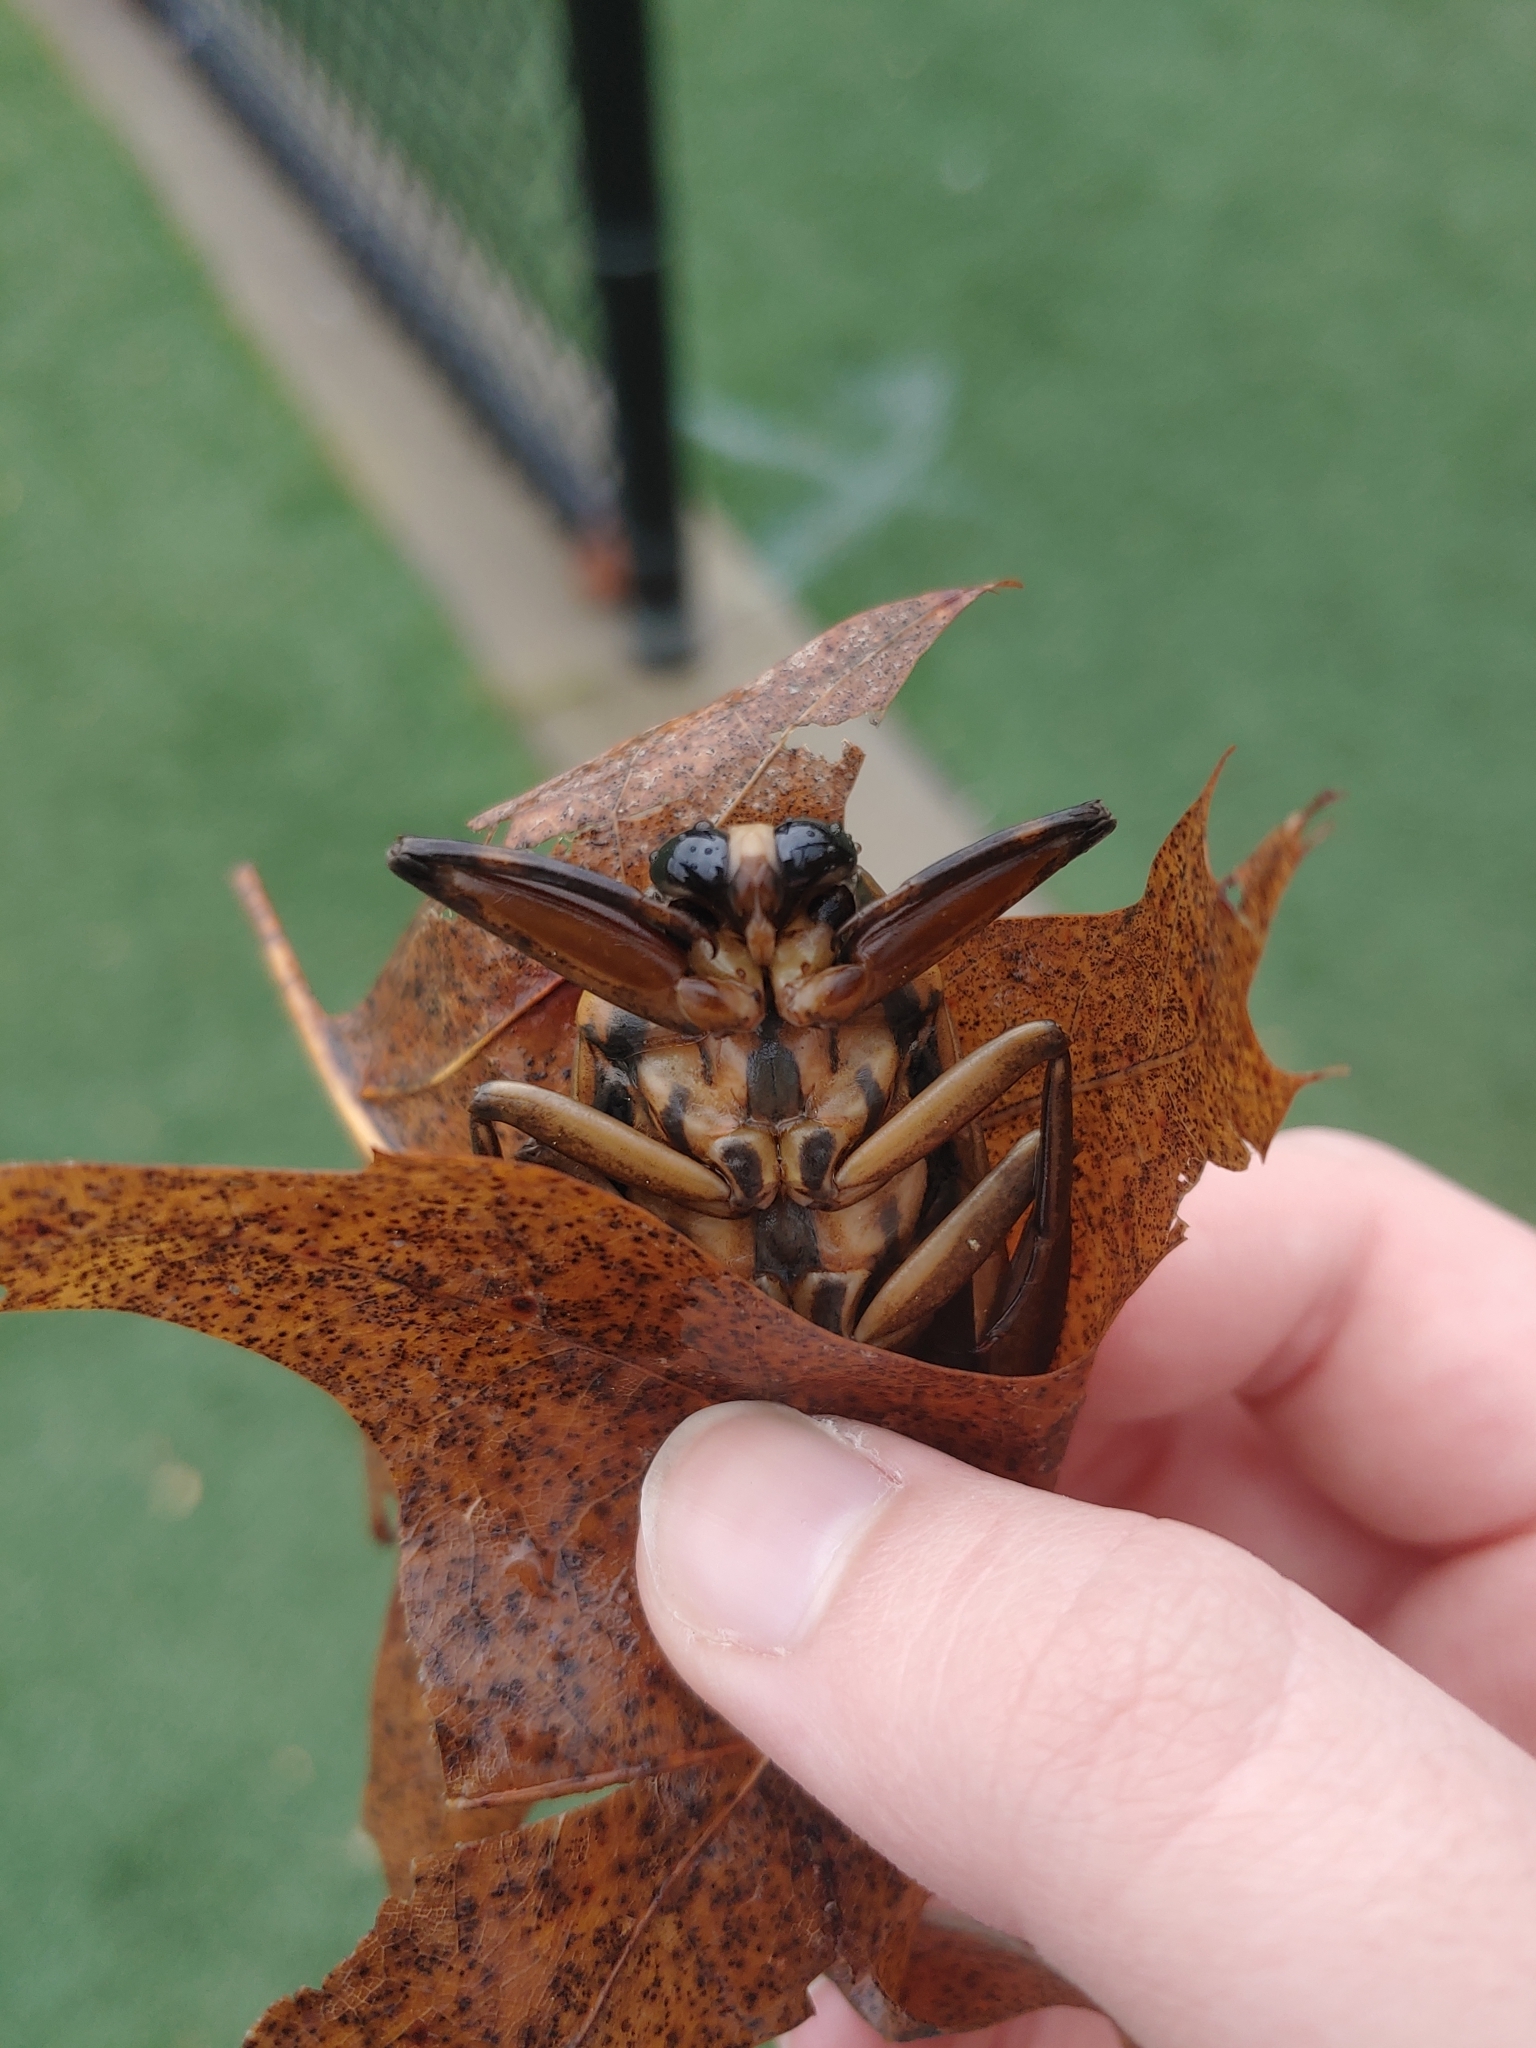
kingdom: Animalia
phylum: Arthropoda
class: Insecta
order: Hemiptera
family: Belostomatidae
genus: Benacus
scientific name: Benacus griseus
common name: Eastern toe-biter
